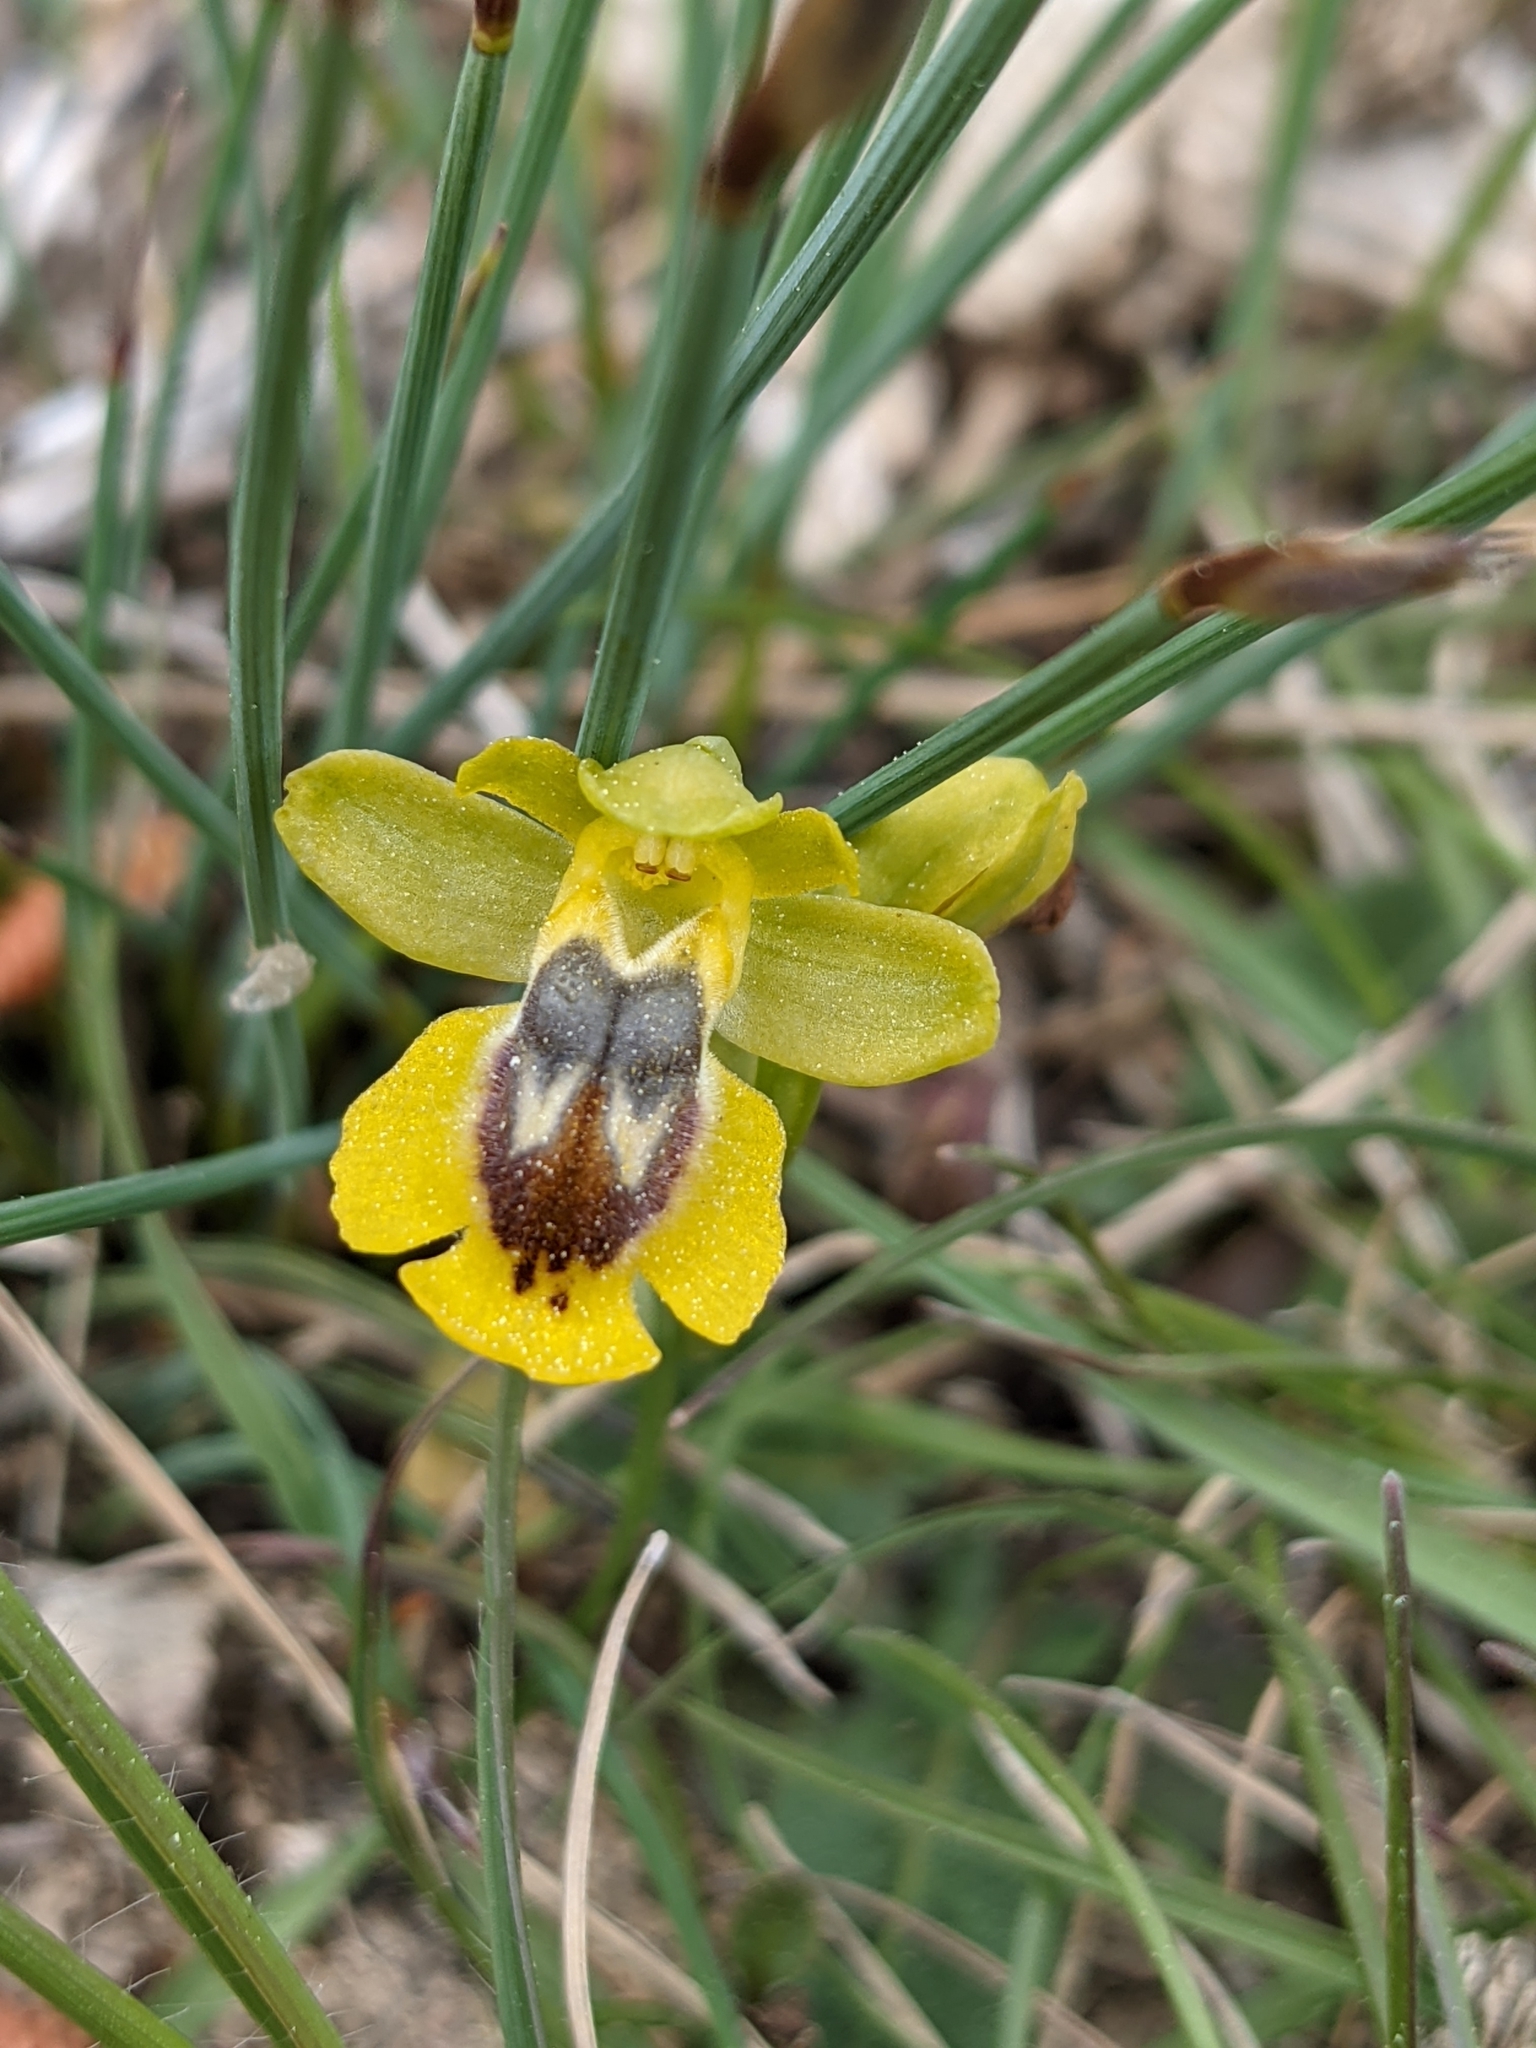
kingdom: Plantae
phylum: Tracheophyta
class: Liliopsida
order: Asparagales
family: Orchidaceae
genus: Ophrys
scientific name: Ophrys lutea
